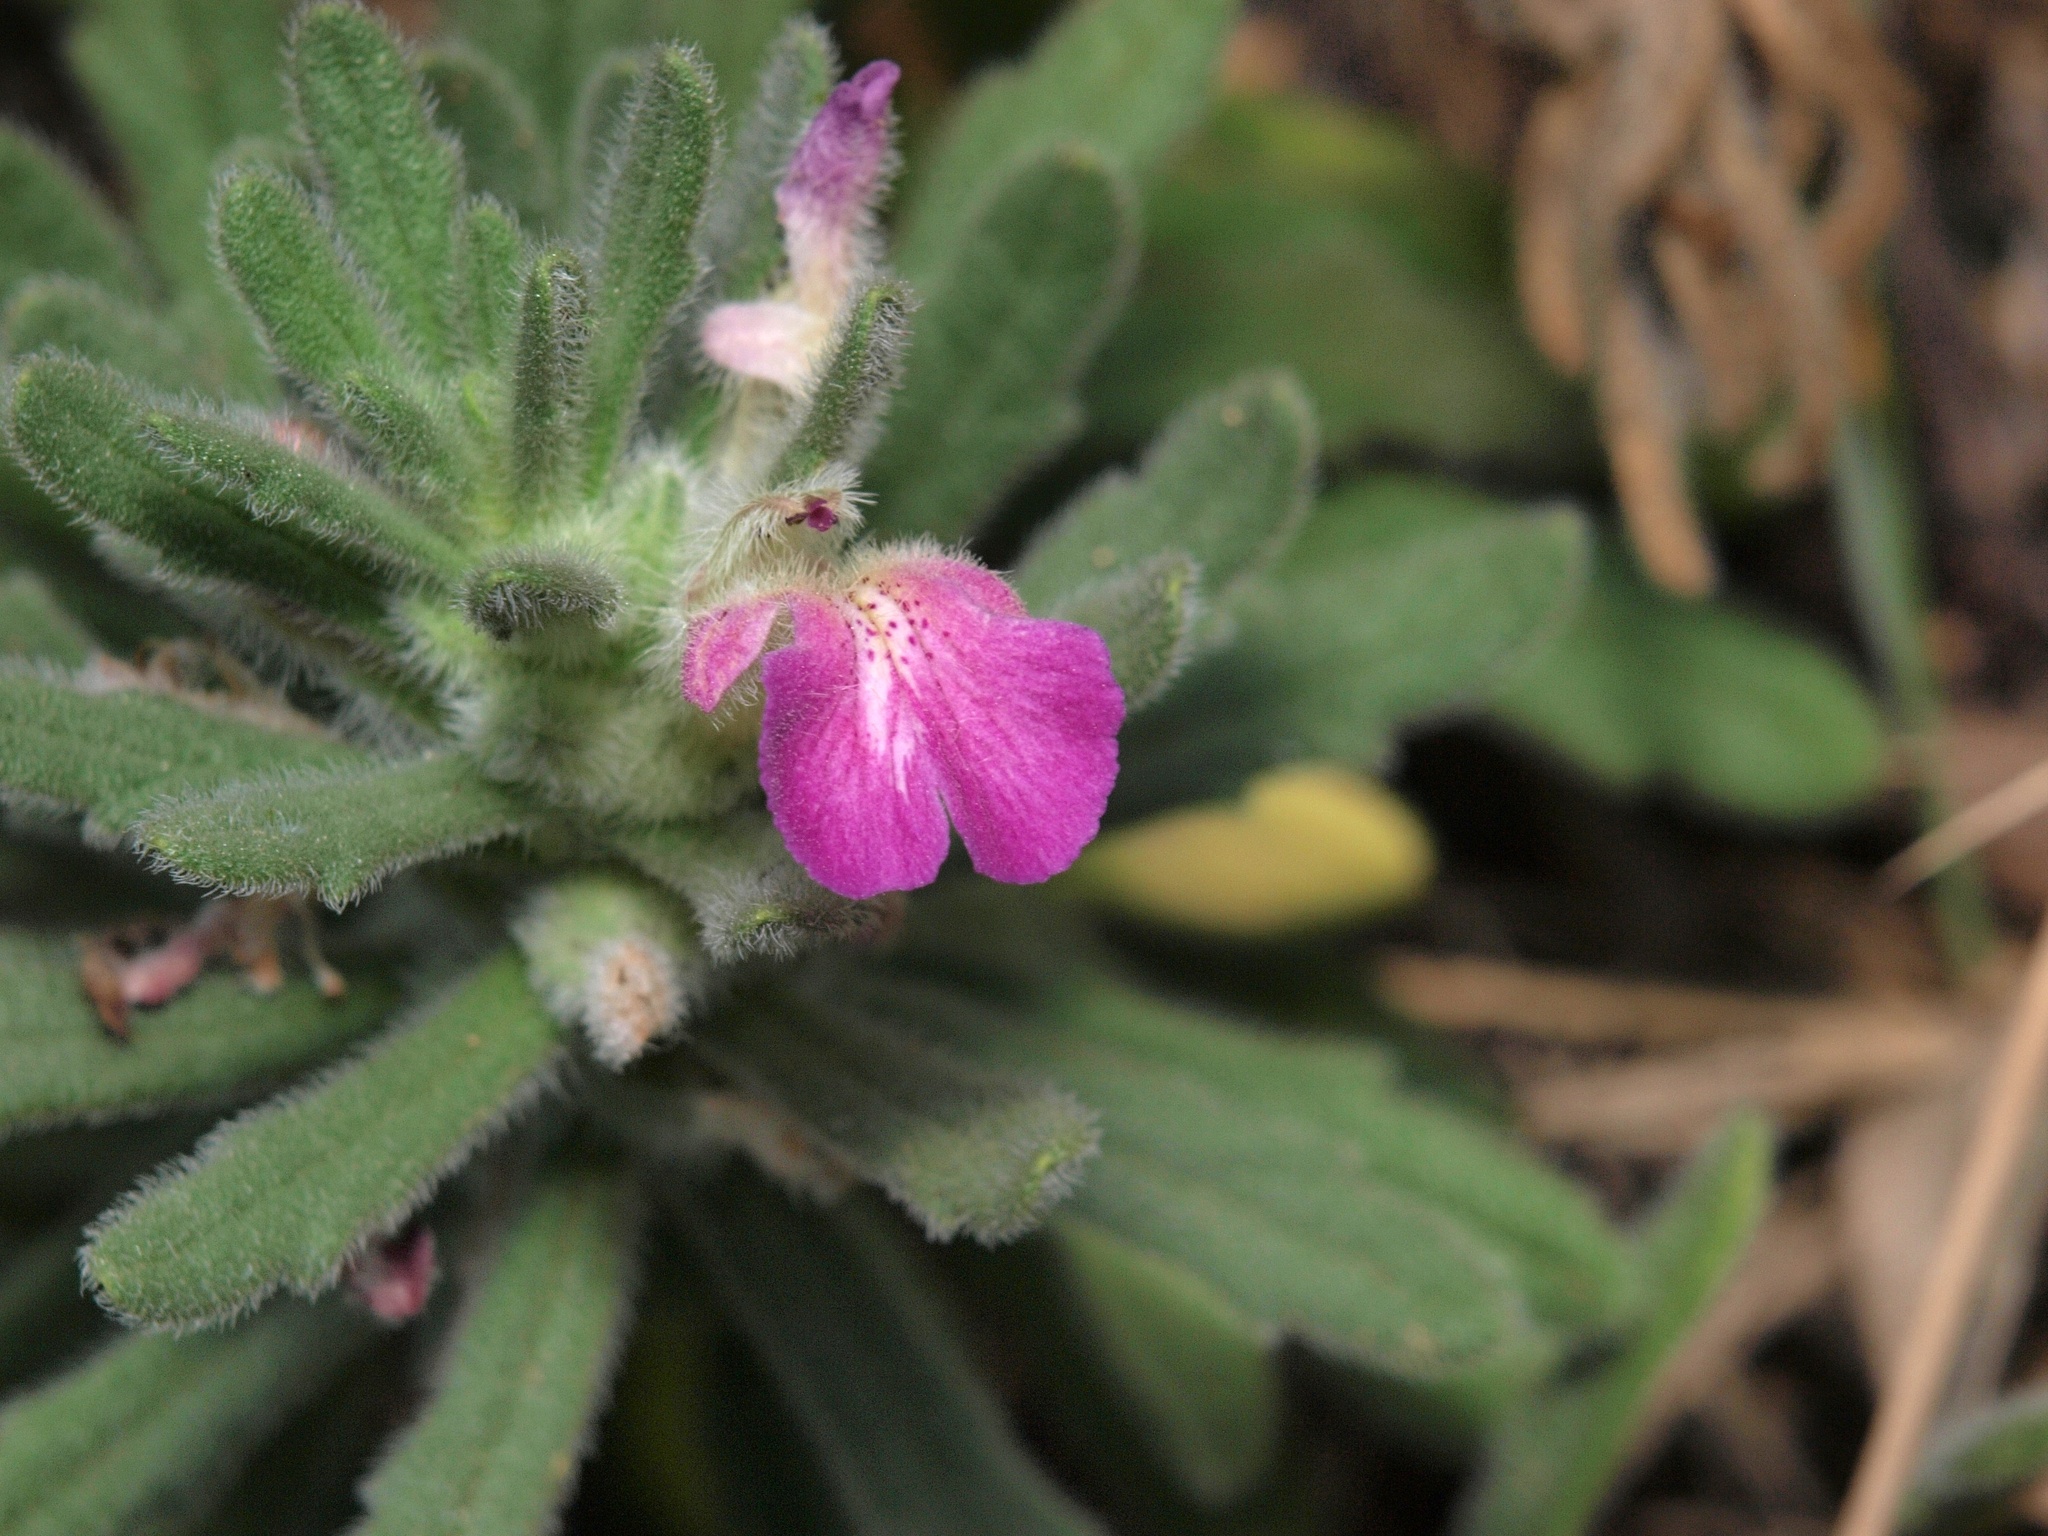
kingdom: Plantae
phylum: Tracheophyta
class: Magnoliopsida
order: Lamiales
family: Lamiaceae
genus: Ajuga
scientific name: Ajuga iva
